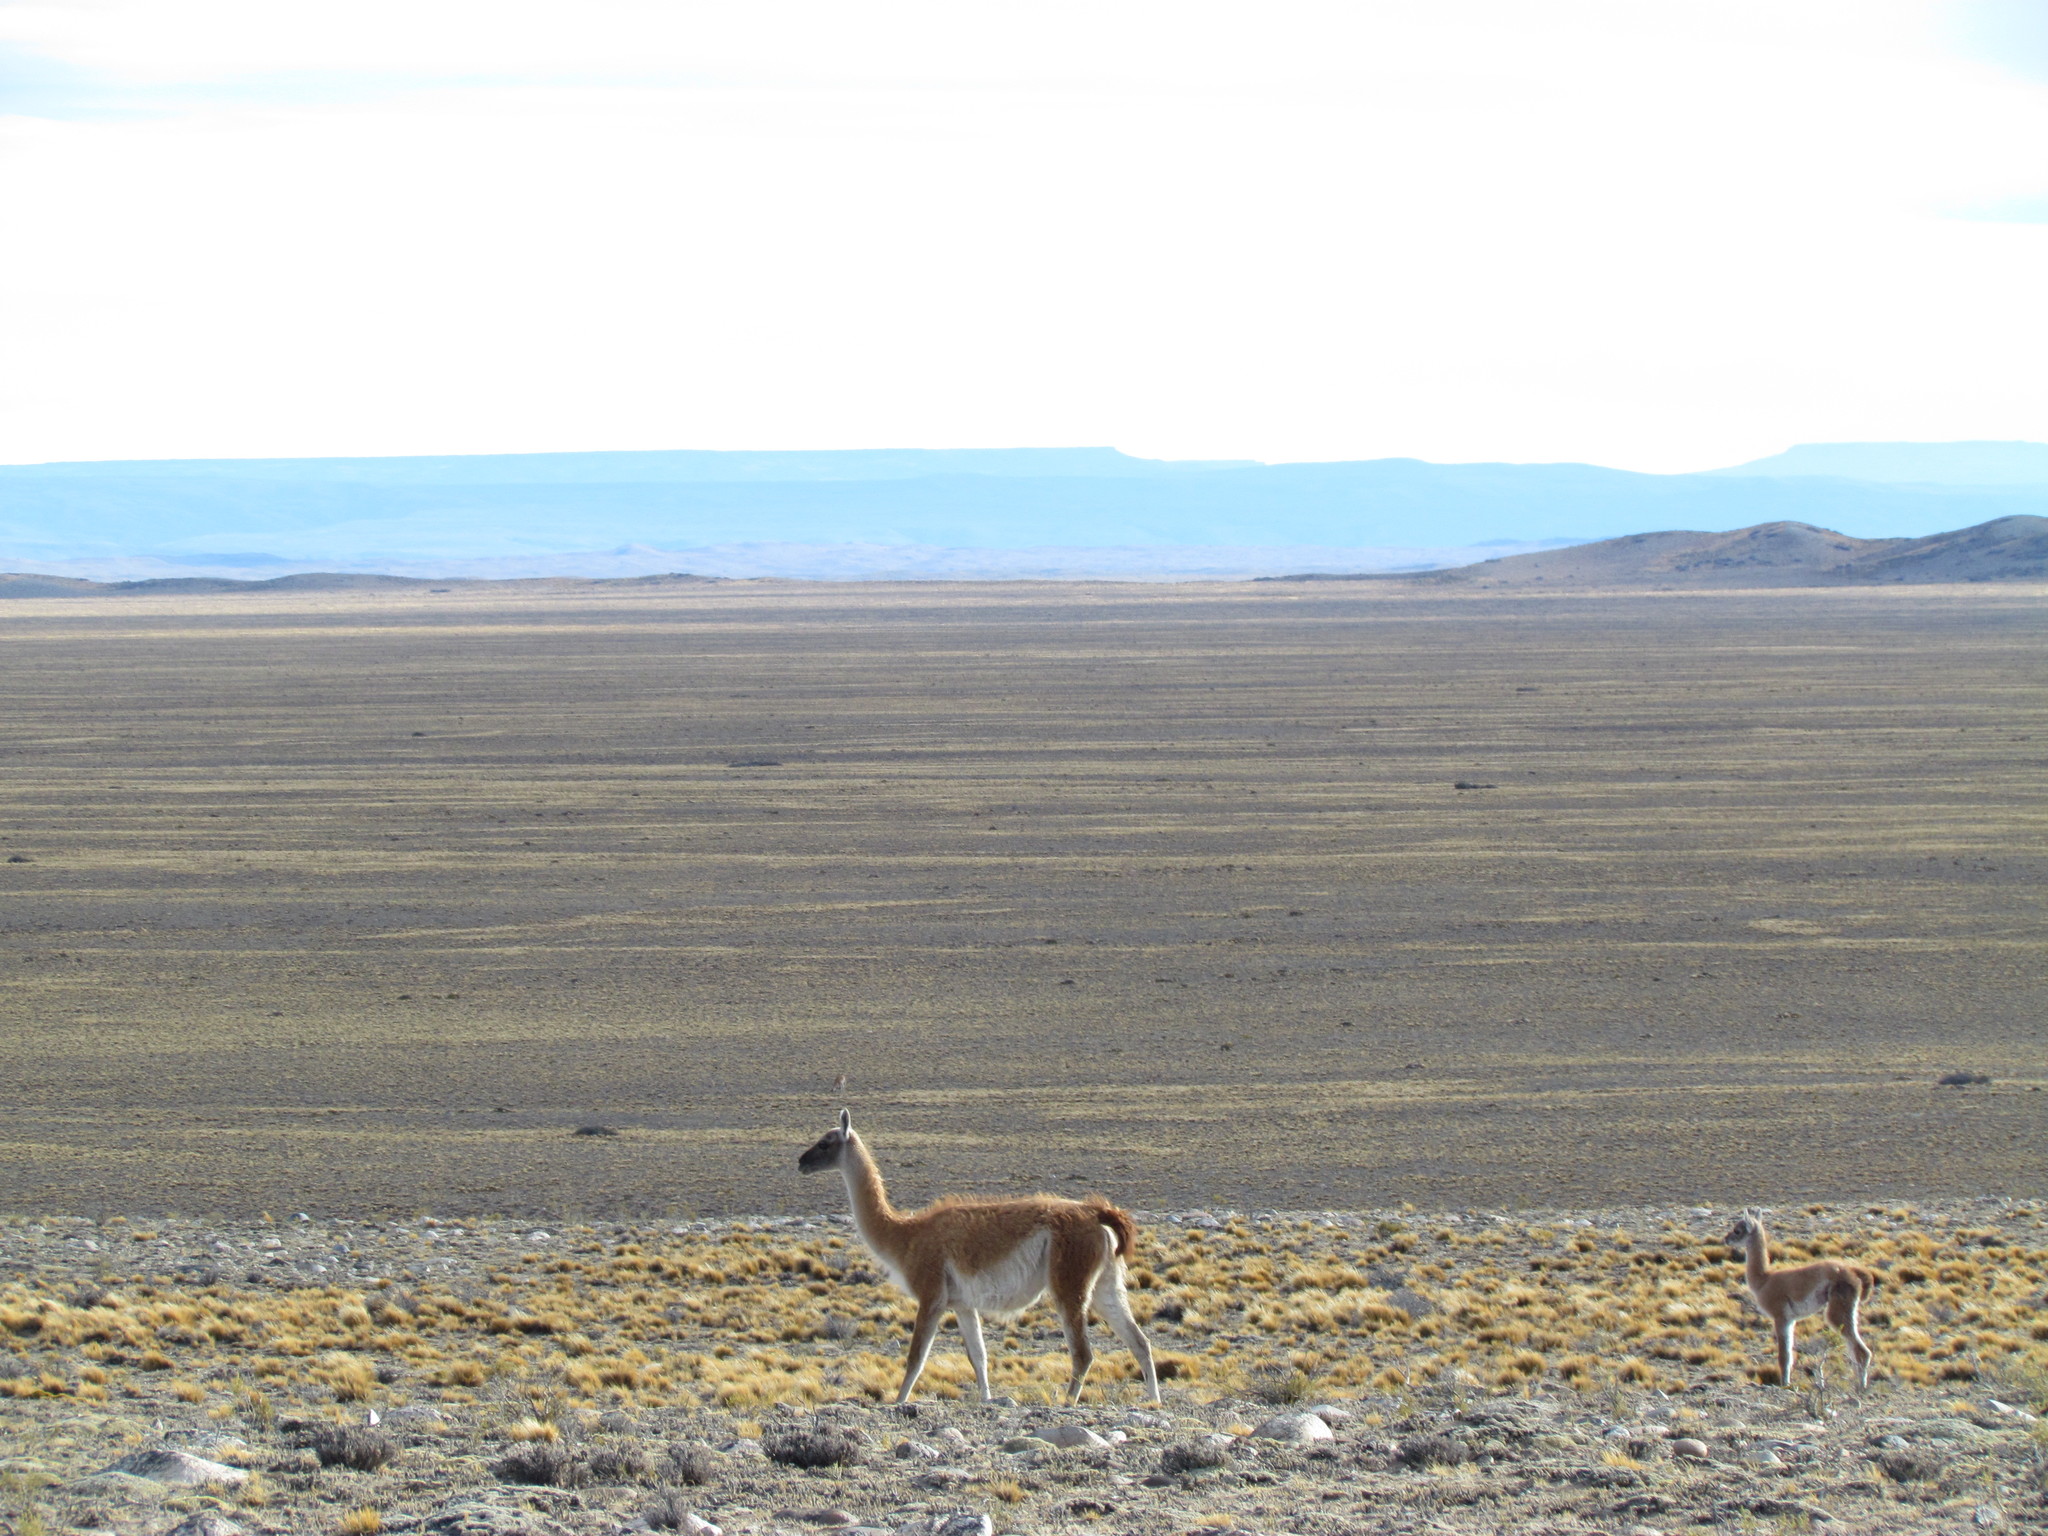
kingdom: Animalia
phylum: Chordata
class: Mammalia
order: Artiodactyla
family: Camelidae
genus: Lama
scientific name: Lama glama
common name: Llama
